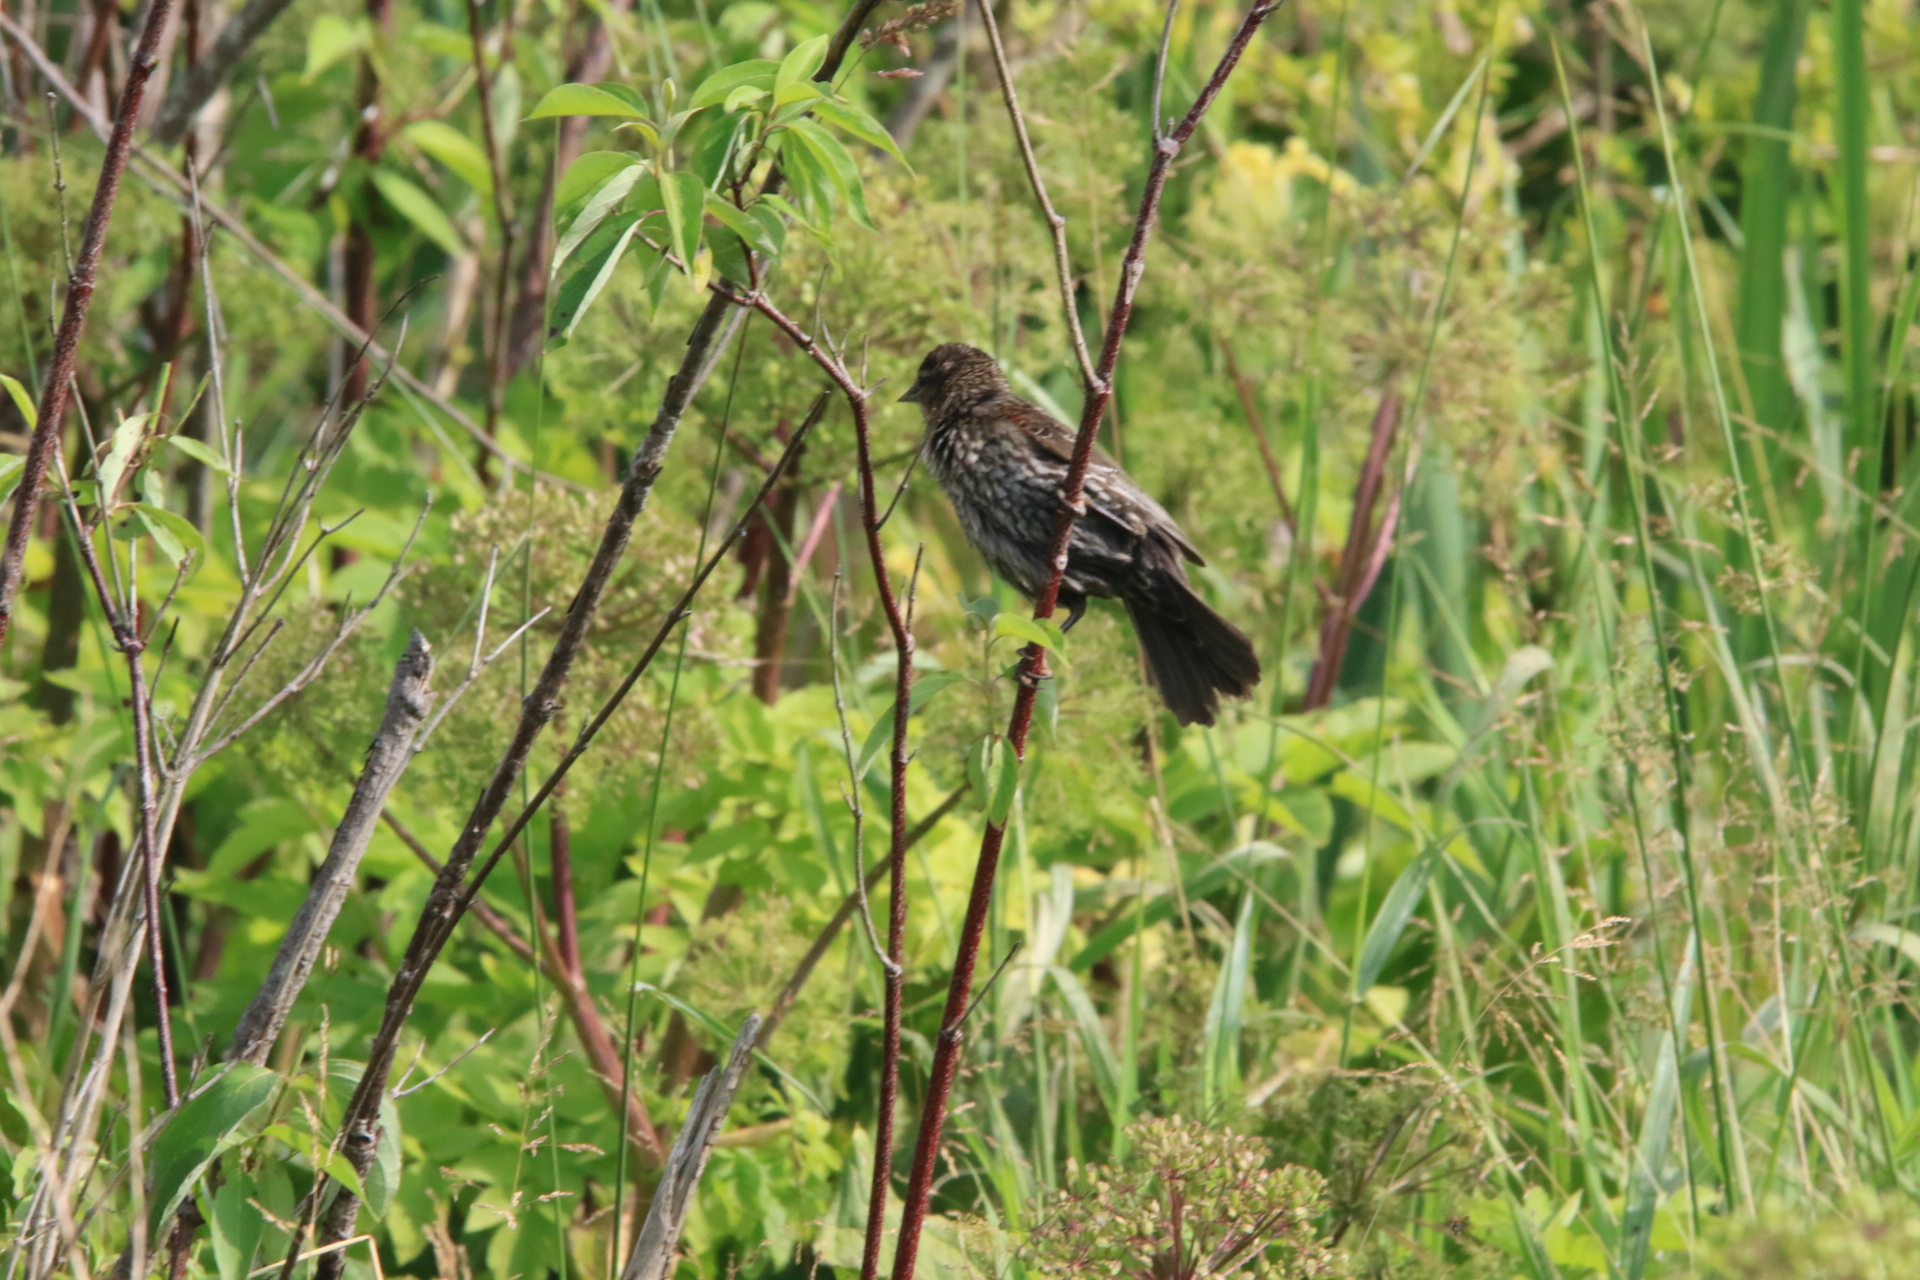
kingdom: Animalia
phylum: Chordata
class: Aves
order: Passeriformes
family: Icteridae
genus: Agelaius
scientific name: Agelaius phoeniceus
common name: Red-winged blackbird
